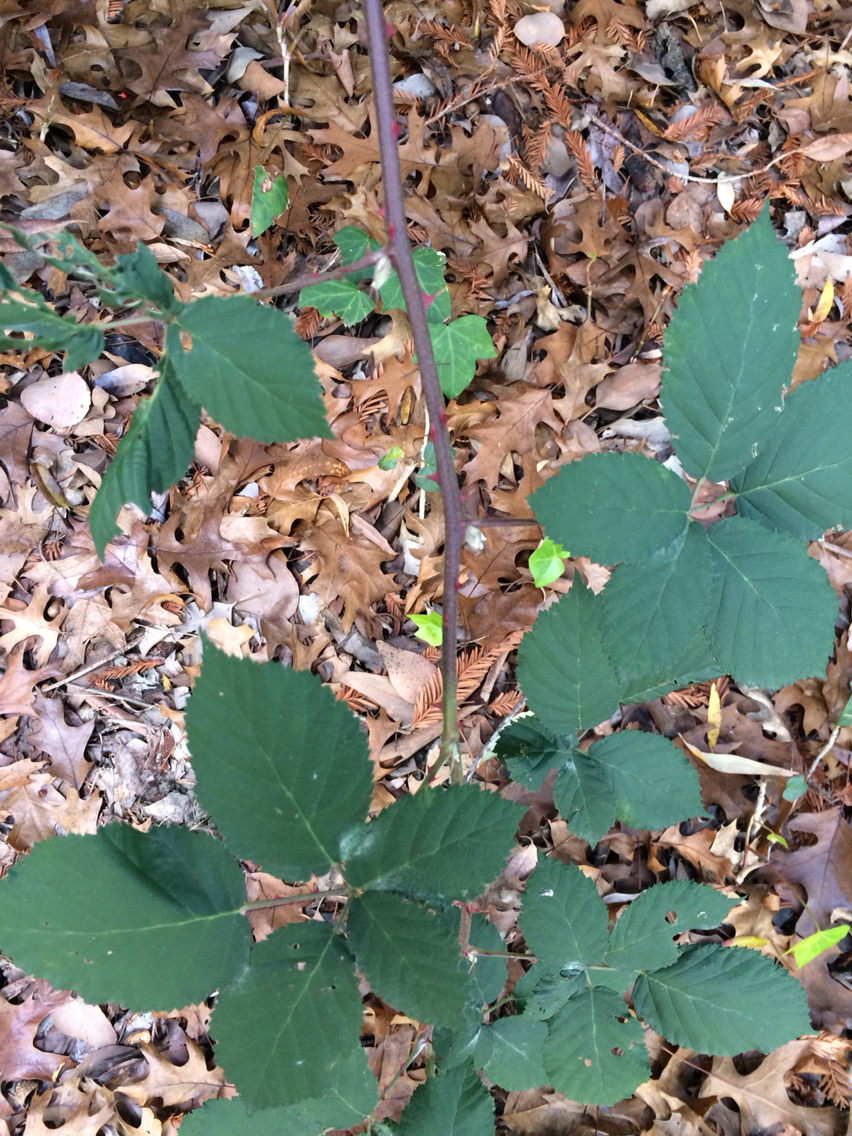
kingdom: Plantae
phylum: Tracheophyta
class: Magnoliopsida
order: Rosales
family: Rosaceae
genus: Rubus
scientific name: Rubus armeniacus
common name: Himalayan blackberry
